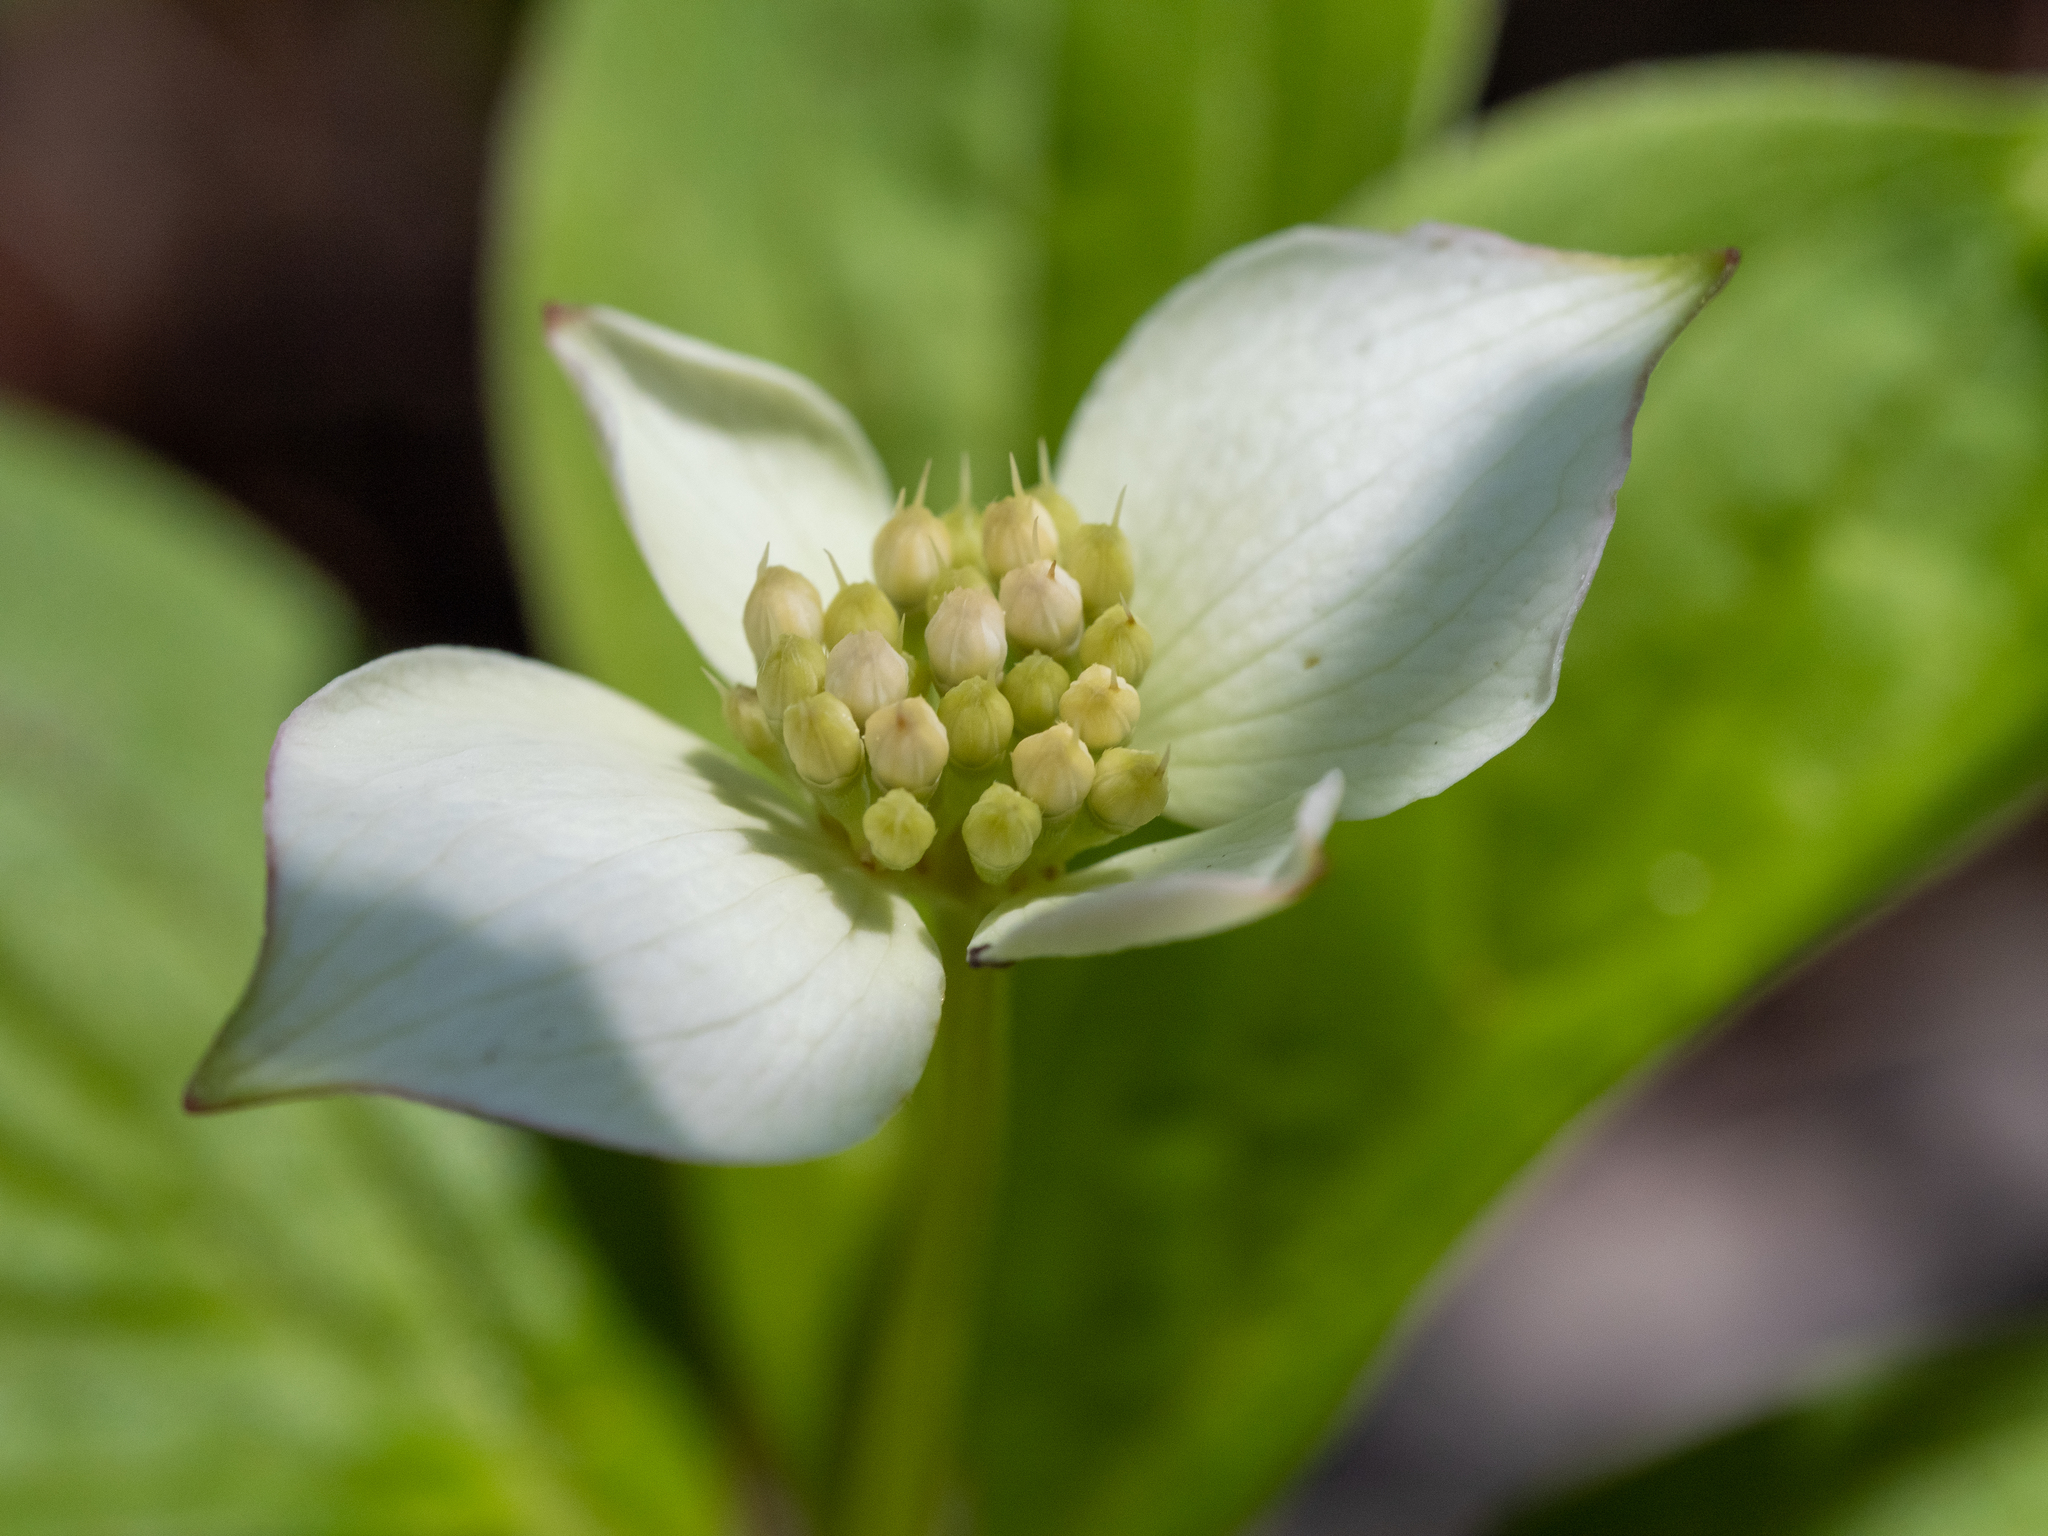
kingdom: Plantae
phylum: Tracheophyta
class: Magnoliopsida
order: Cornales
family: Cornaceae
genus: Cornus
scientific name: Cornus canadensis
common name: Creeping dogwood
